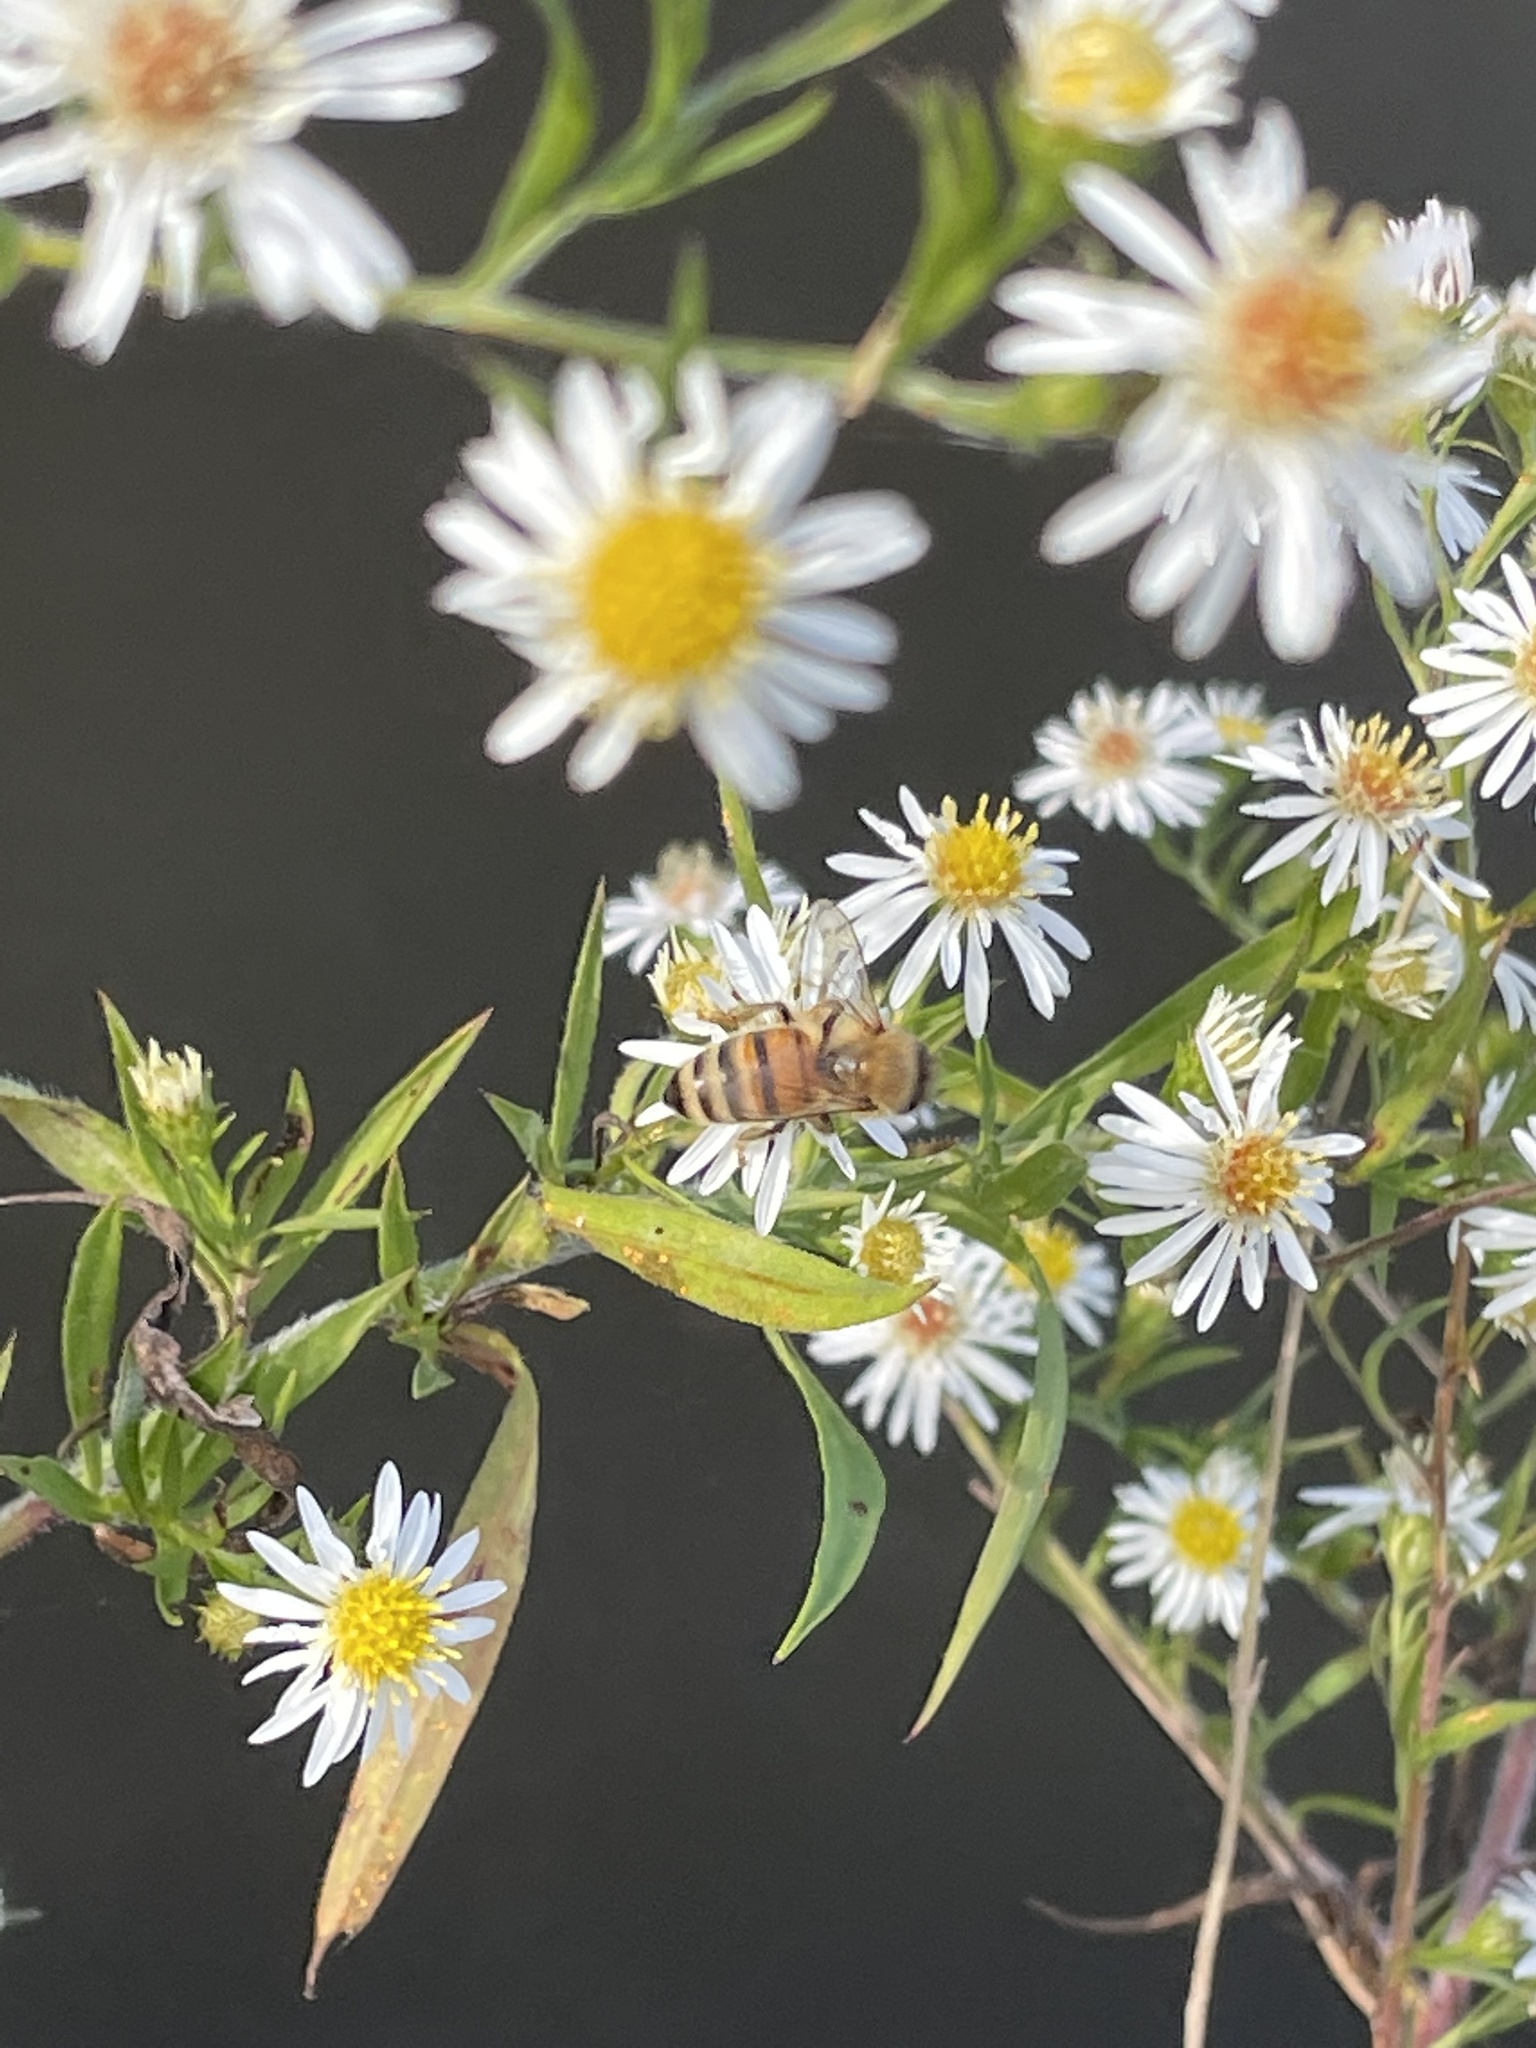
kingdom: Animalia
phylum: Arthropoda
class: Insecta
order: Hymenoptera
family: Apidae
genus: Apis
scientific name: Apis mellifera
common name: Honey bee
